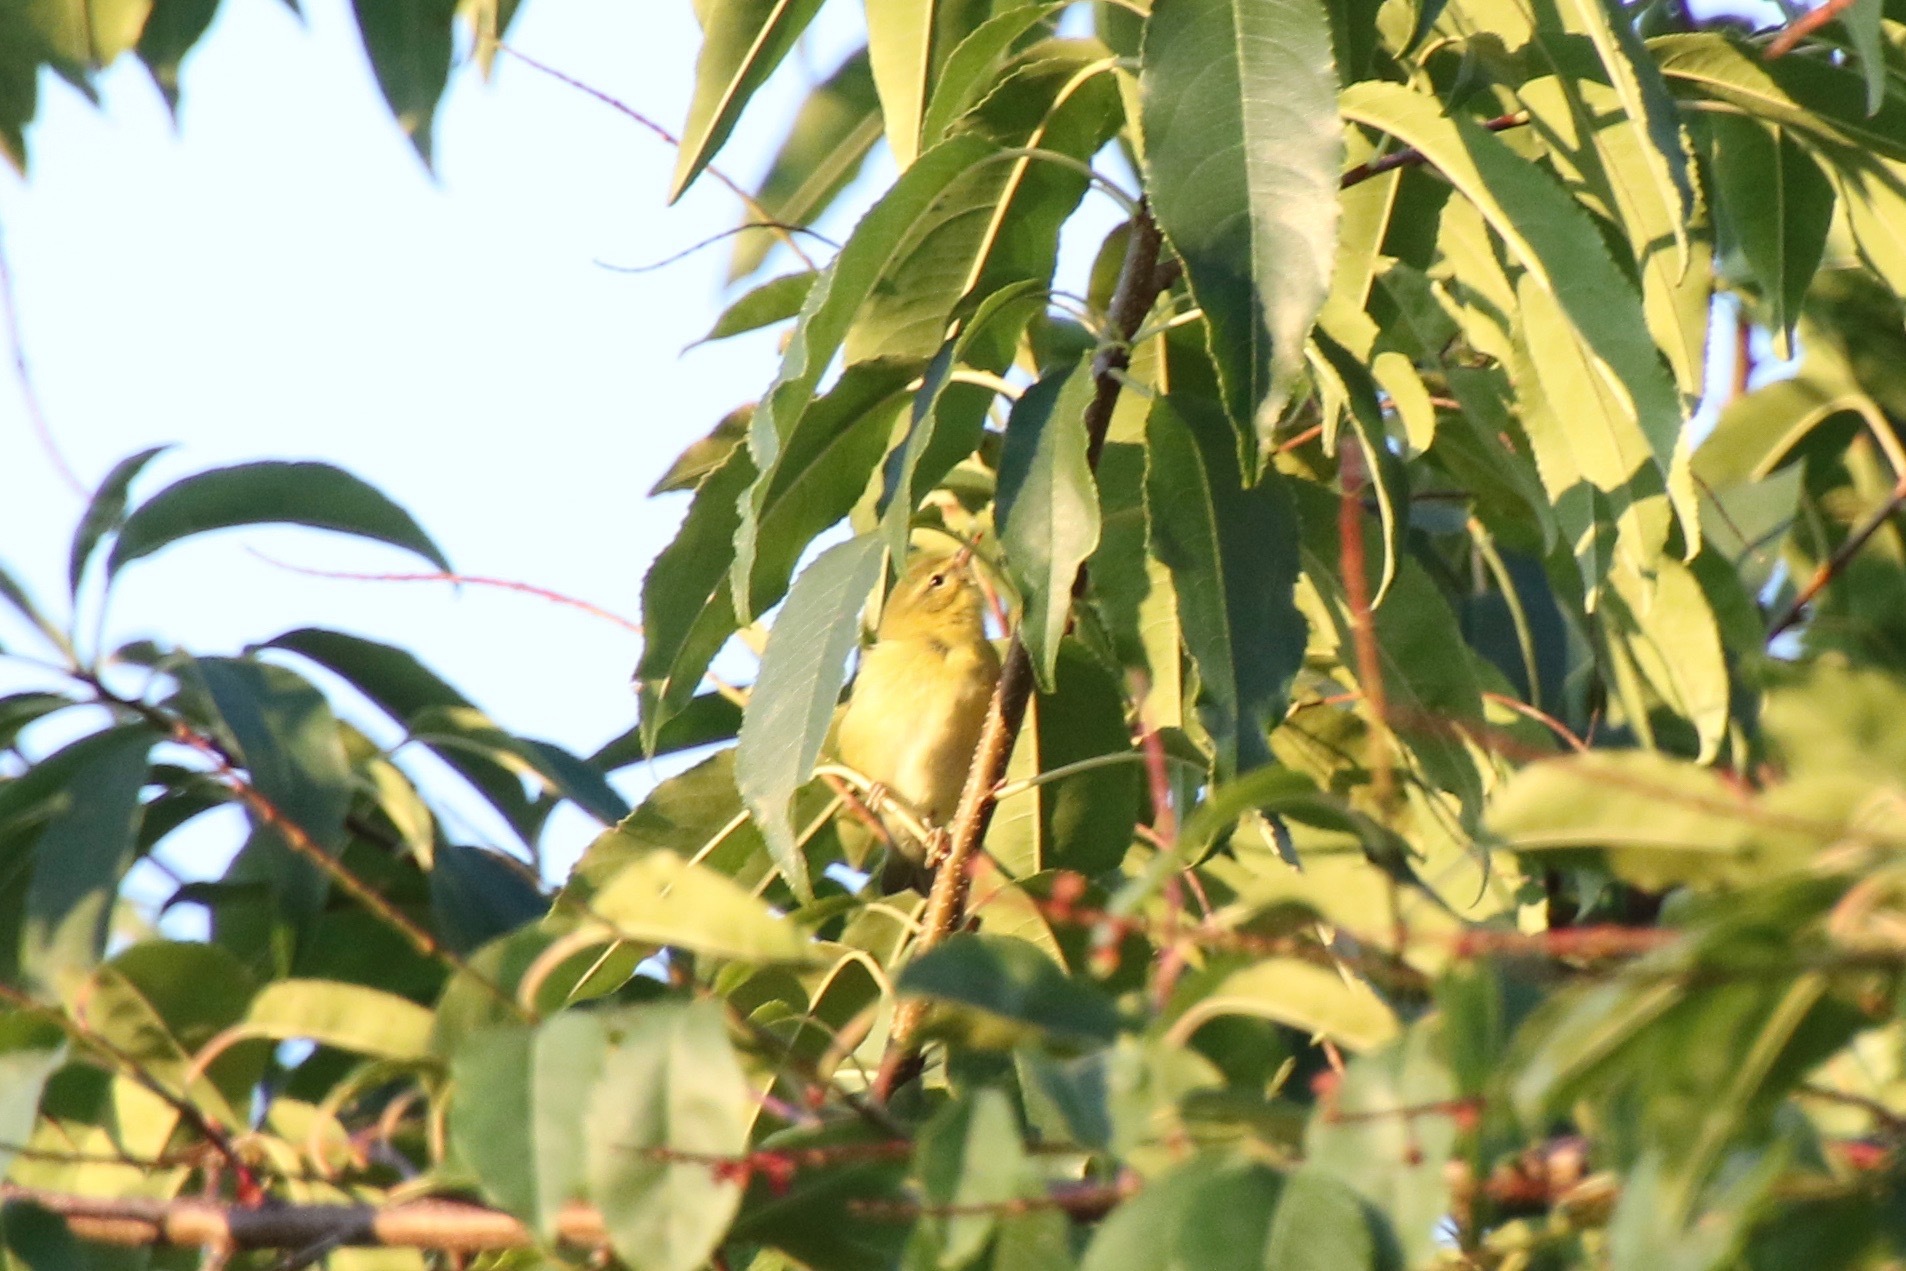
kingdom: Animalia
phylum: Chordata
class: Aves
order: Passeriformes
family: Parulidae
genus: Leiothlypis
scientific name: Leiothlypis peregrina
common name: Tennessee warbler
